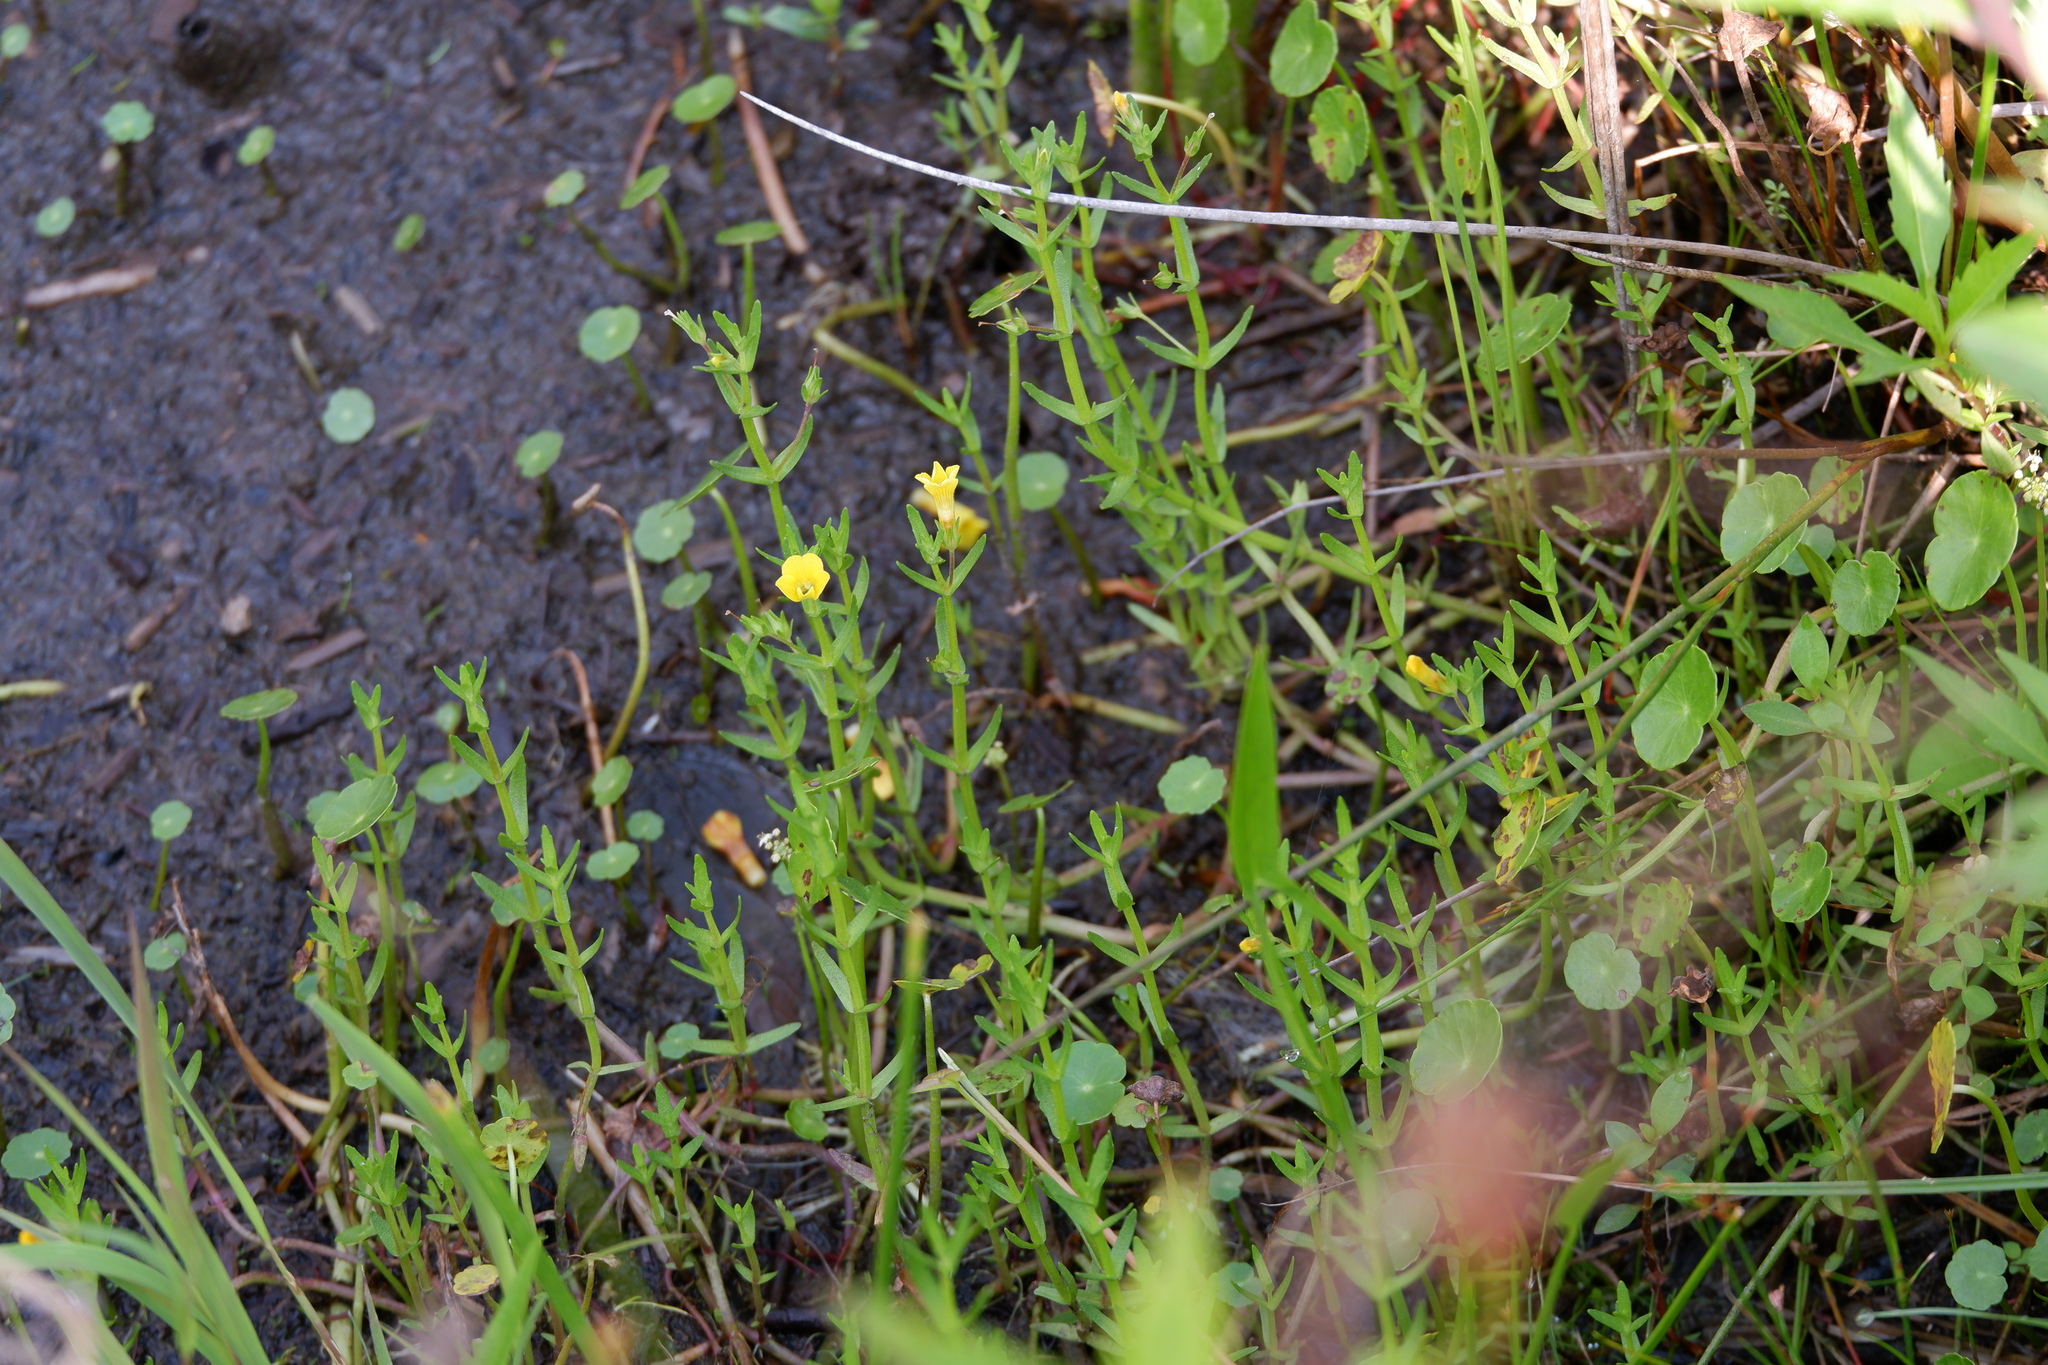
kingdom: Plantae
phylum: Tracheophyta
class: Magnoliopsida
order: Lamiales
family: Plantaginaceae
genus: Gratiola
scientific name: Gratiola lutea
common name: Golden hedge-hyssop
